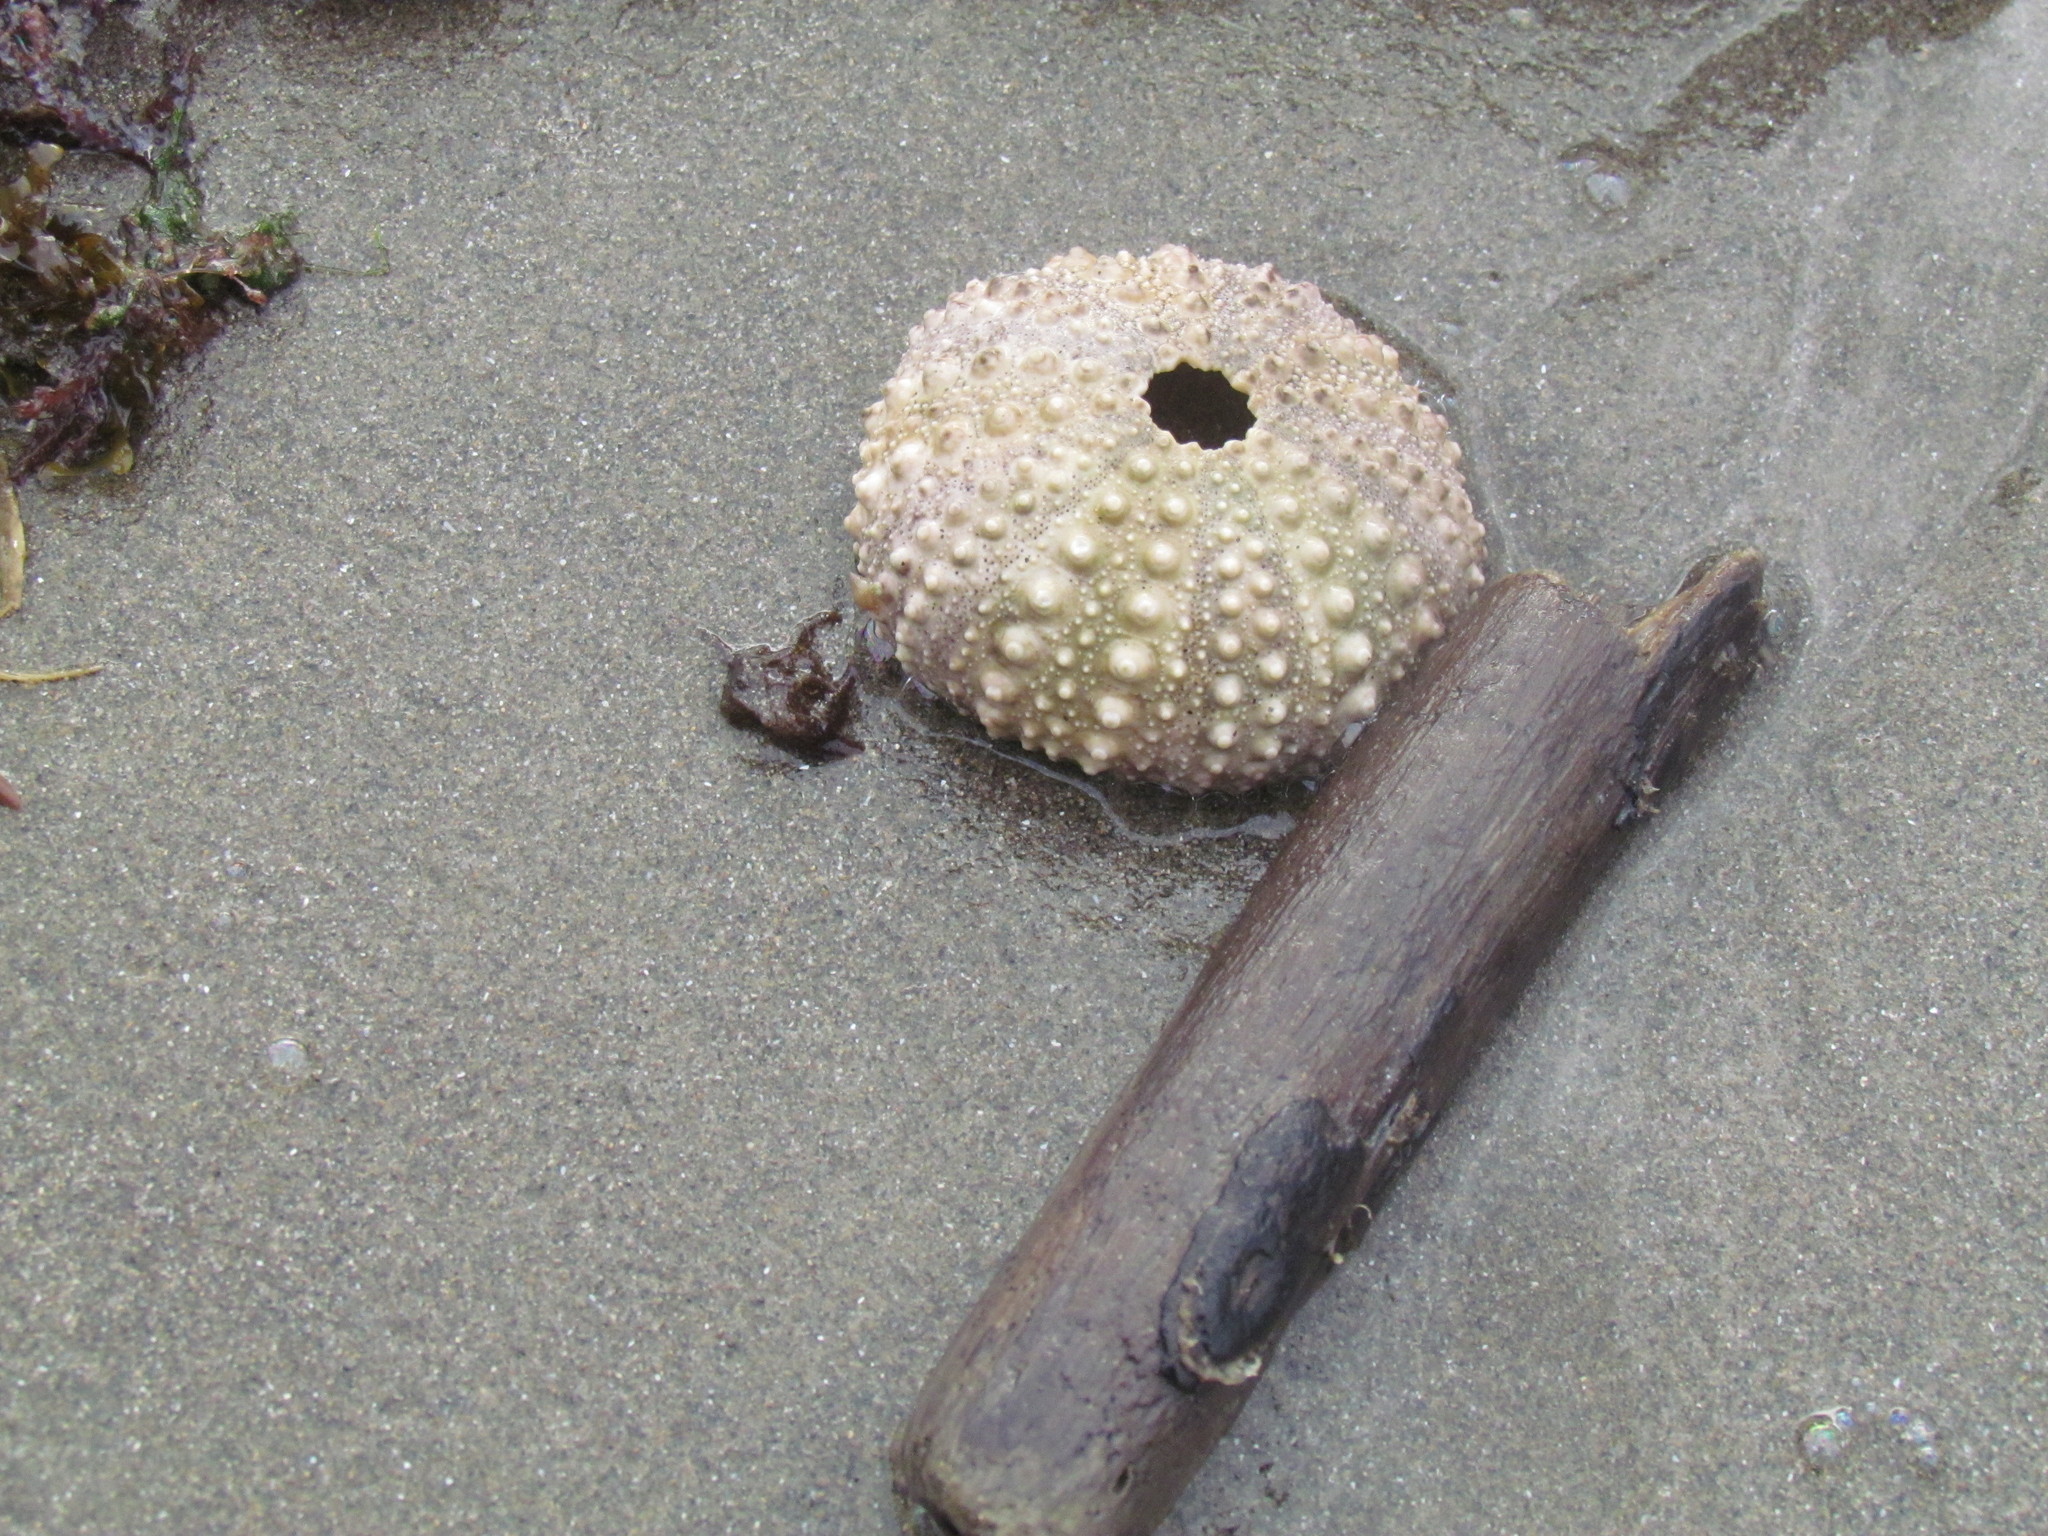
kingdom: Animalia
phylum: Echinodermata
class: Echinoidea
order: Camarodonta
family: Echinometridae
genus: Echinometra
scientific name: Echinometra lucunter
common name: Rock urchin
